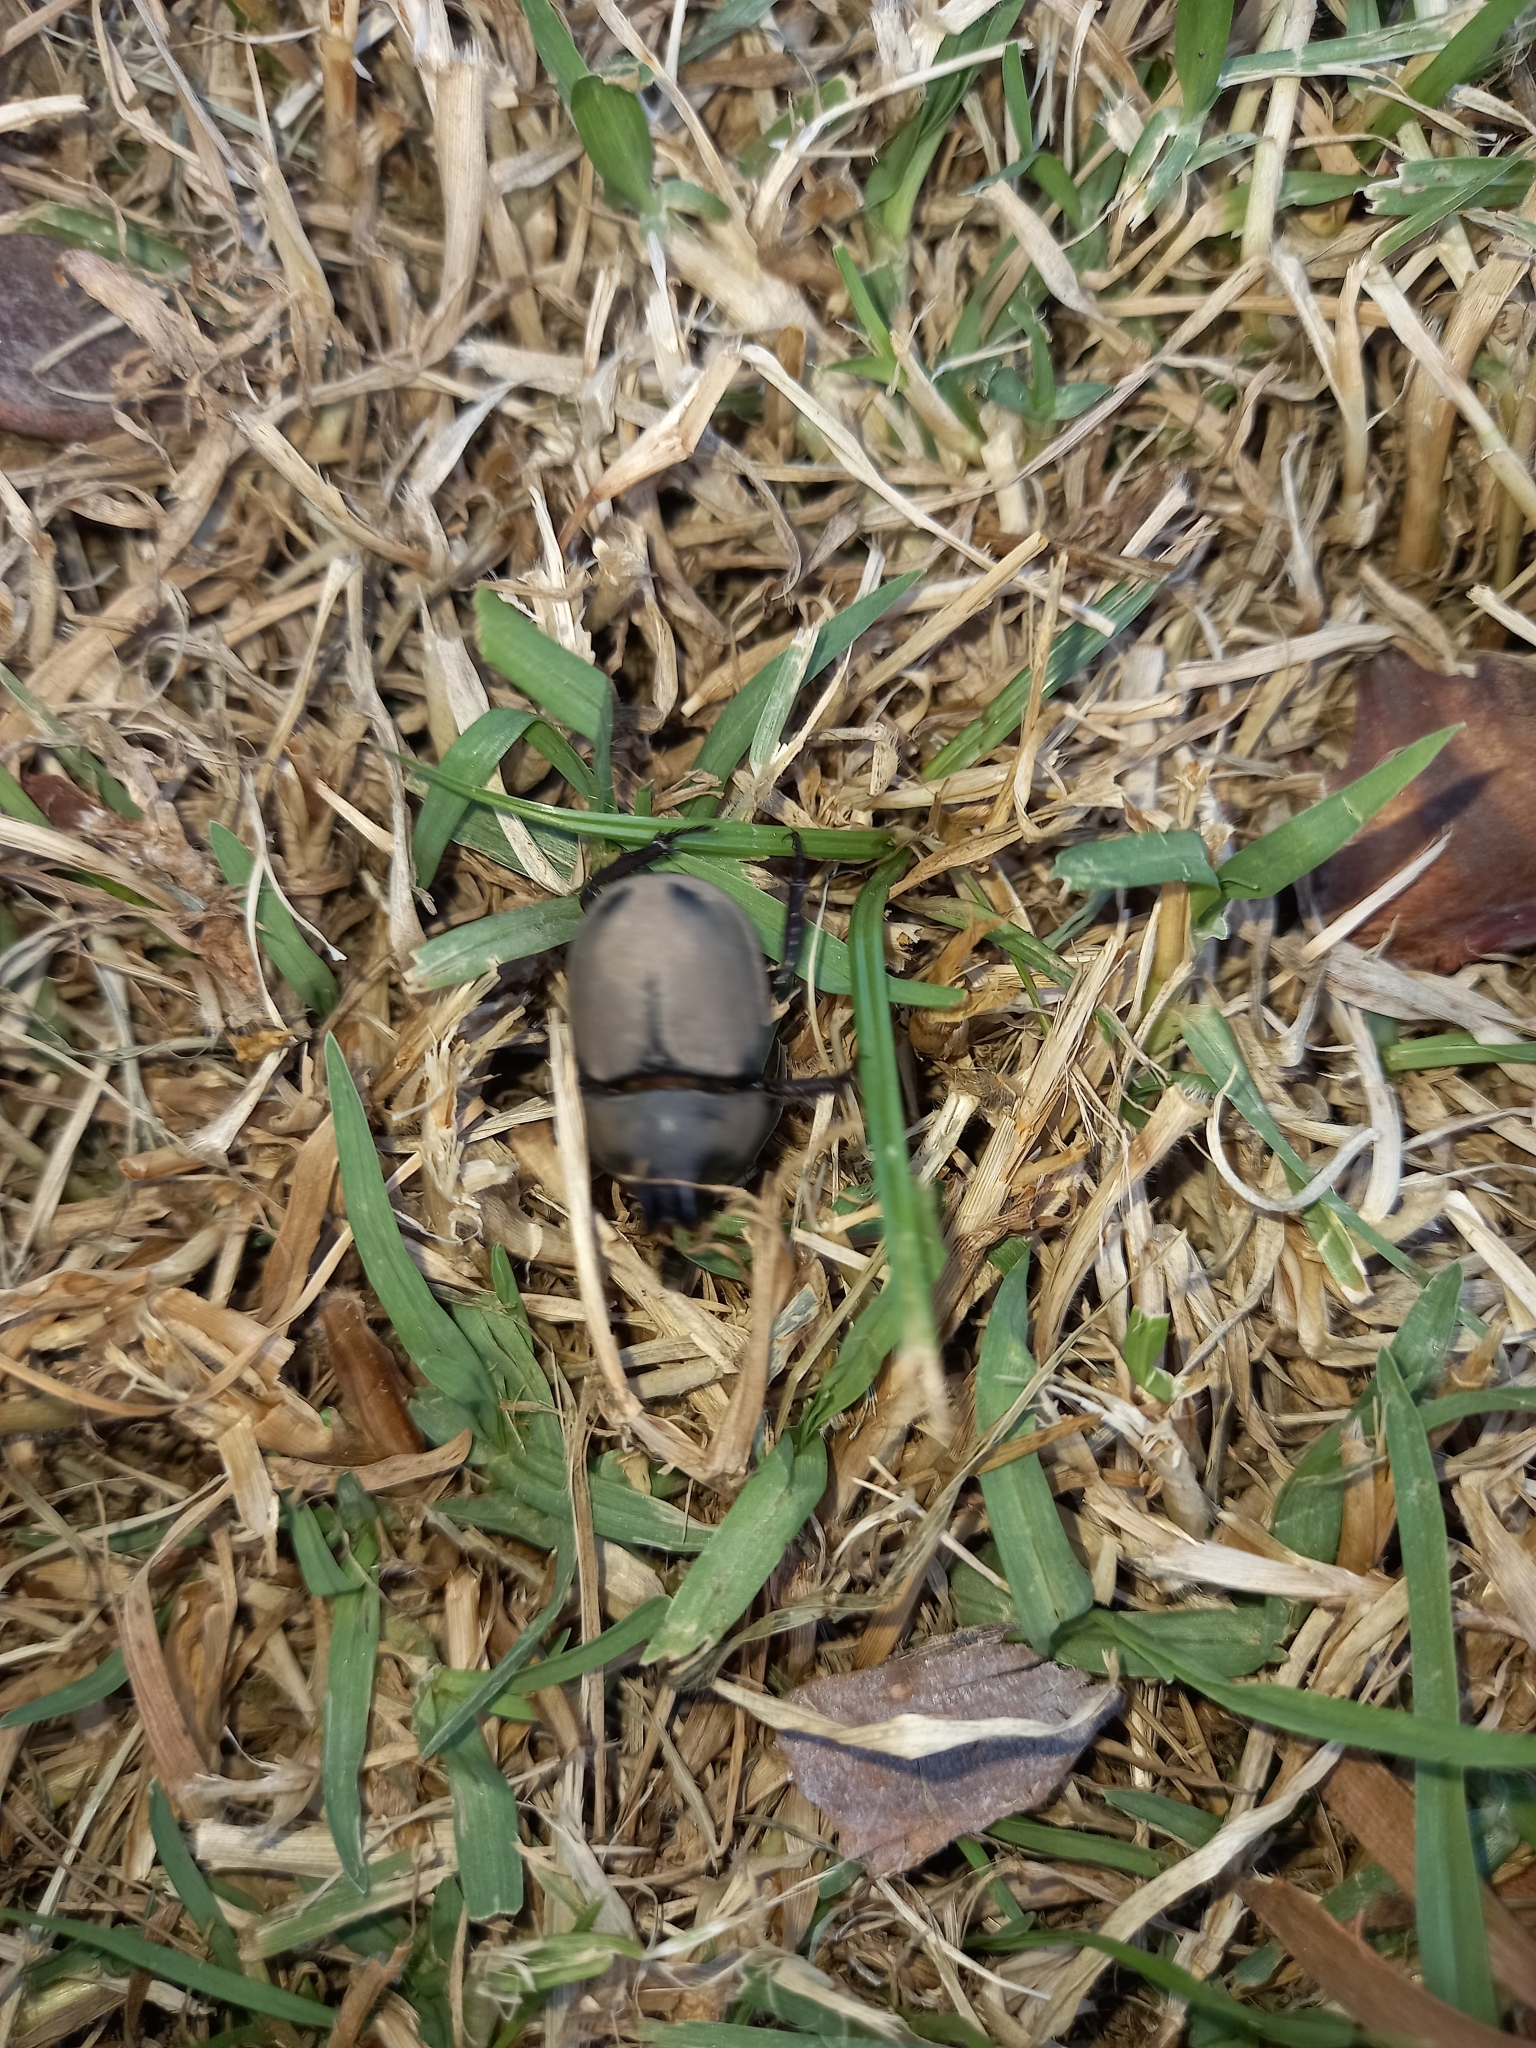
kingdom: Animalia
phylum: Arthropoda
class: Insecta
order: Coleoptera
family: Scarabaeidae
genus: Diloboderus
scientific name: Diloboderus abderus
